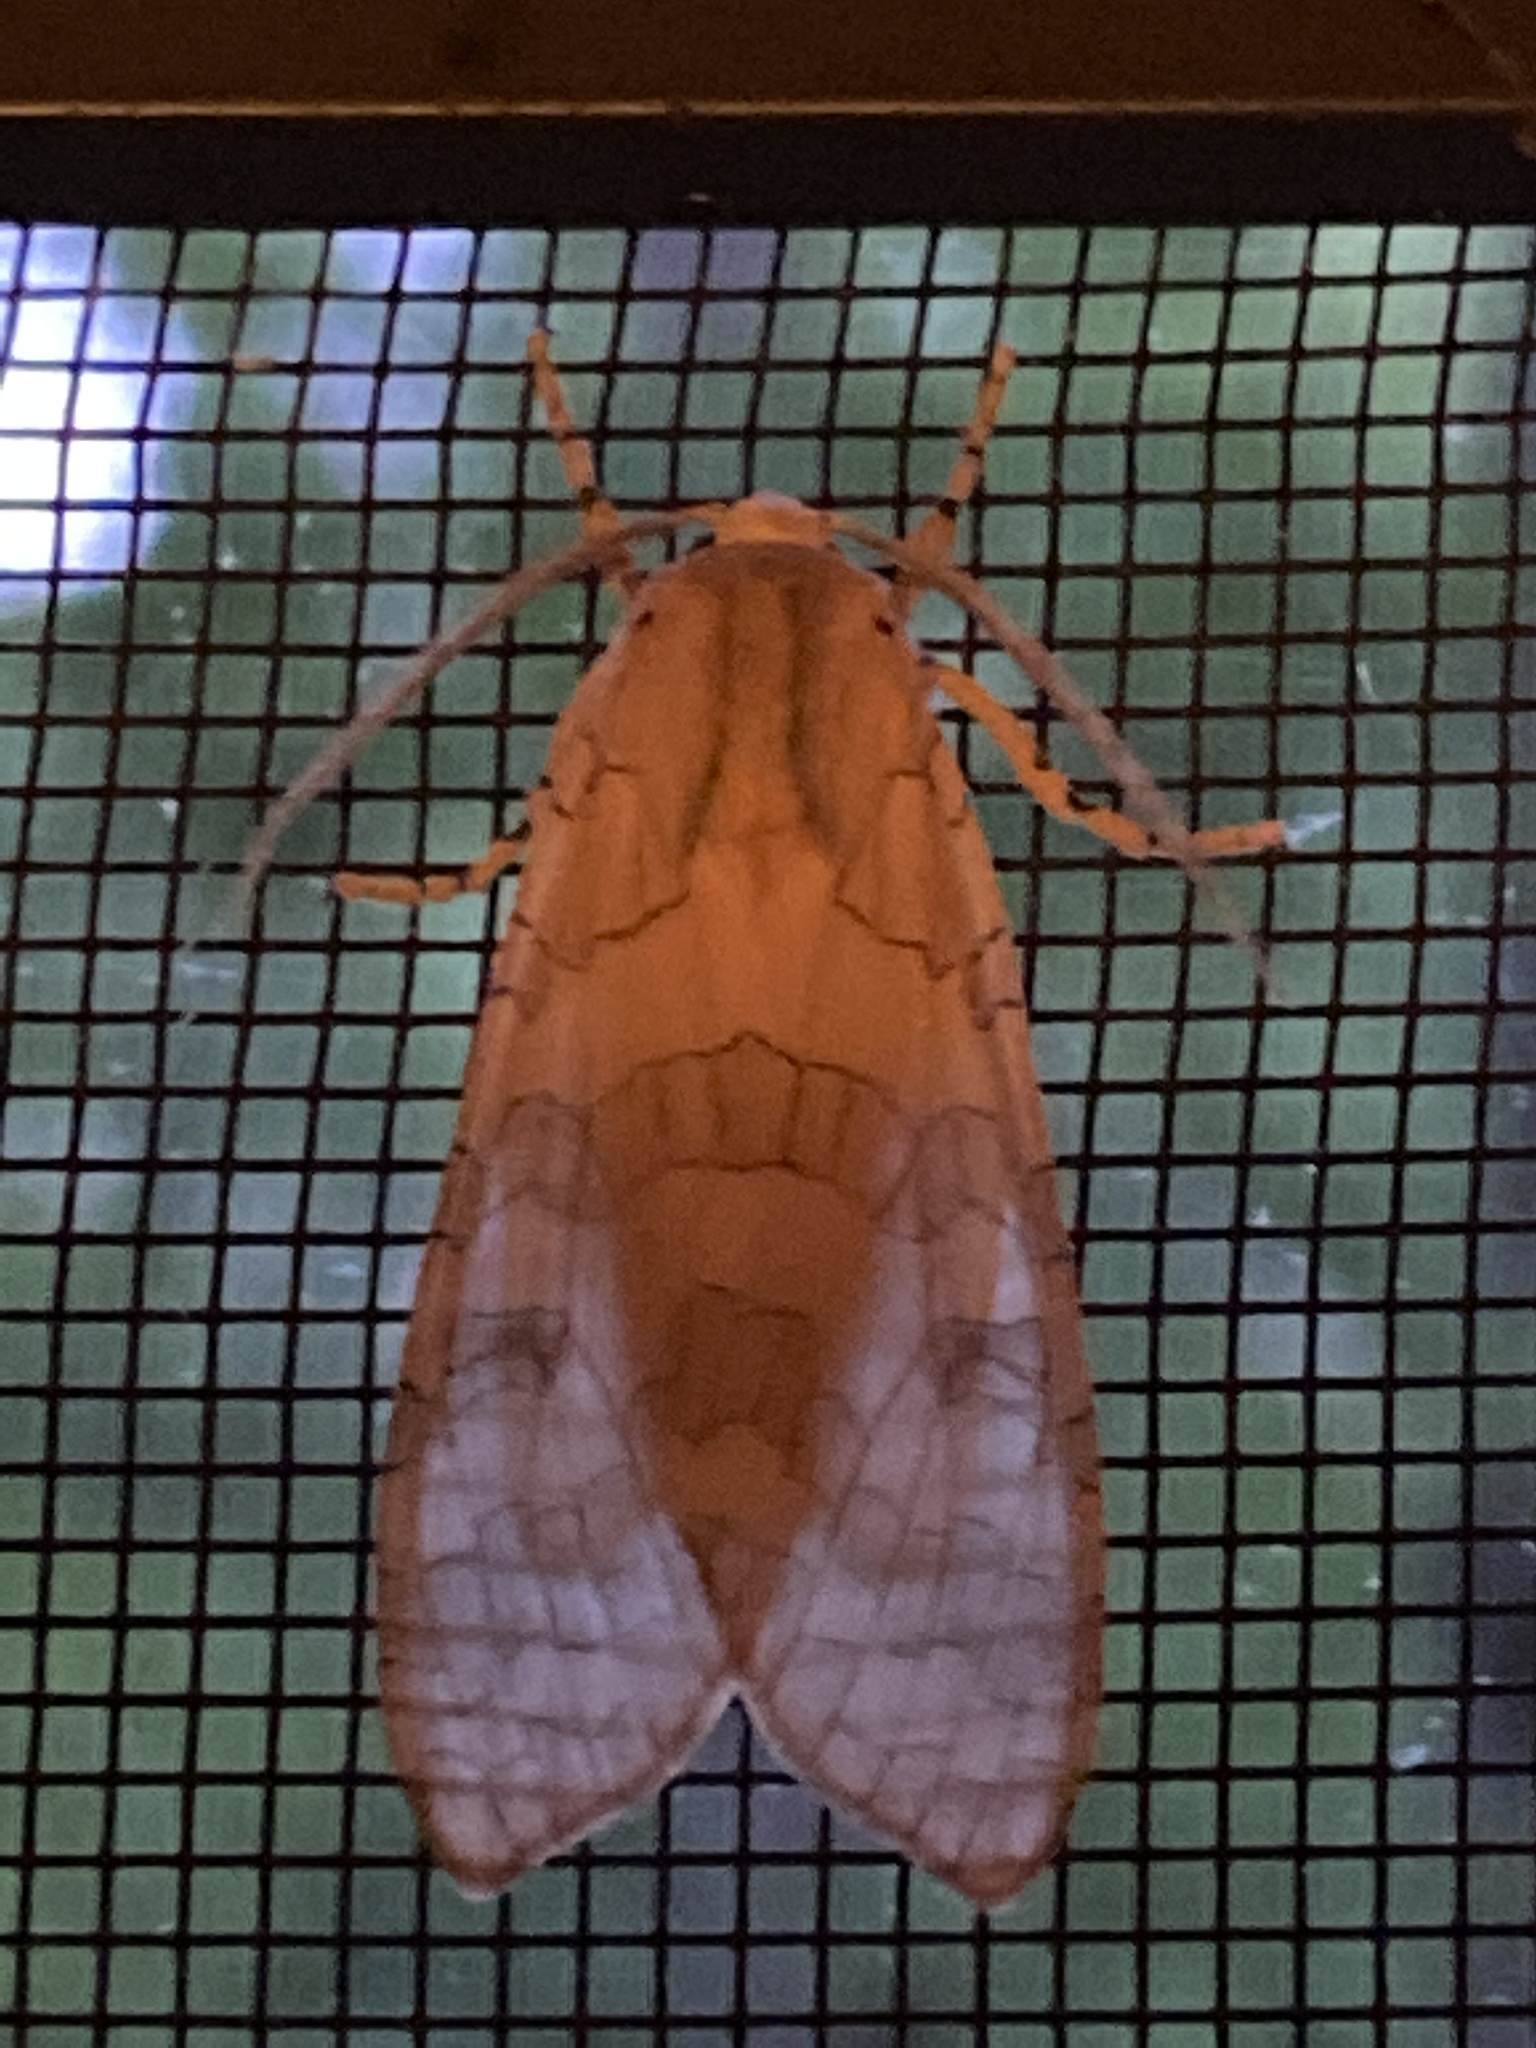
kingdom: Animalia
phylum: Arthropoda
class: Insecta
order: Lepidoptera
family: Erebidae
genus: Halysidota
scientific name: Halysidota
